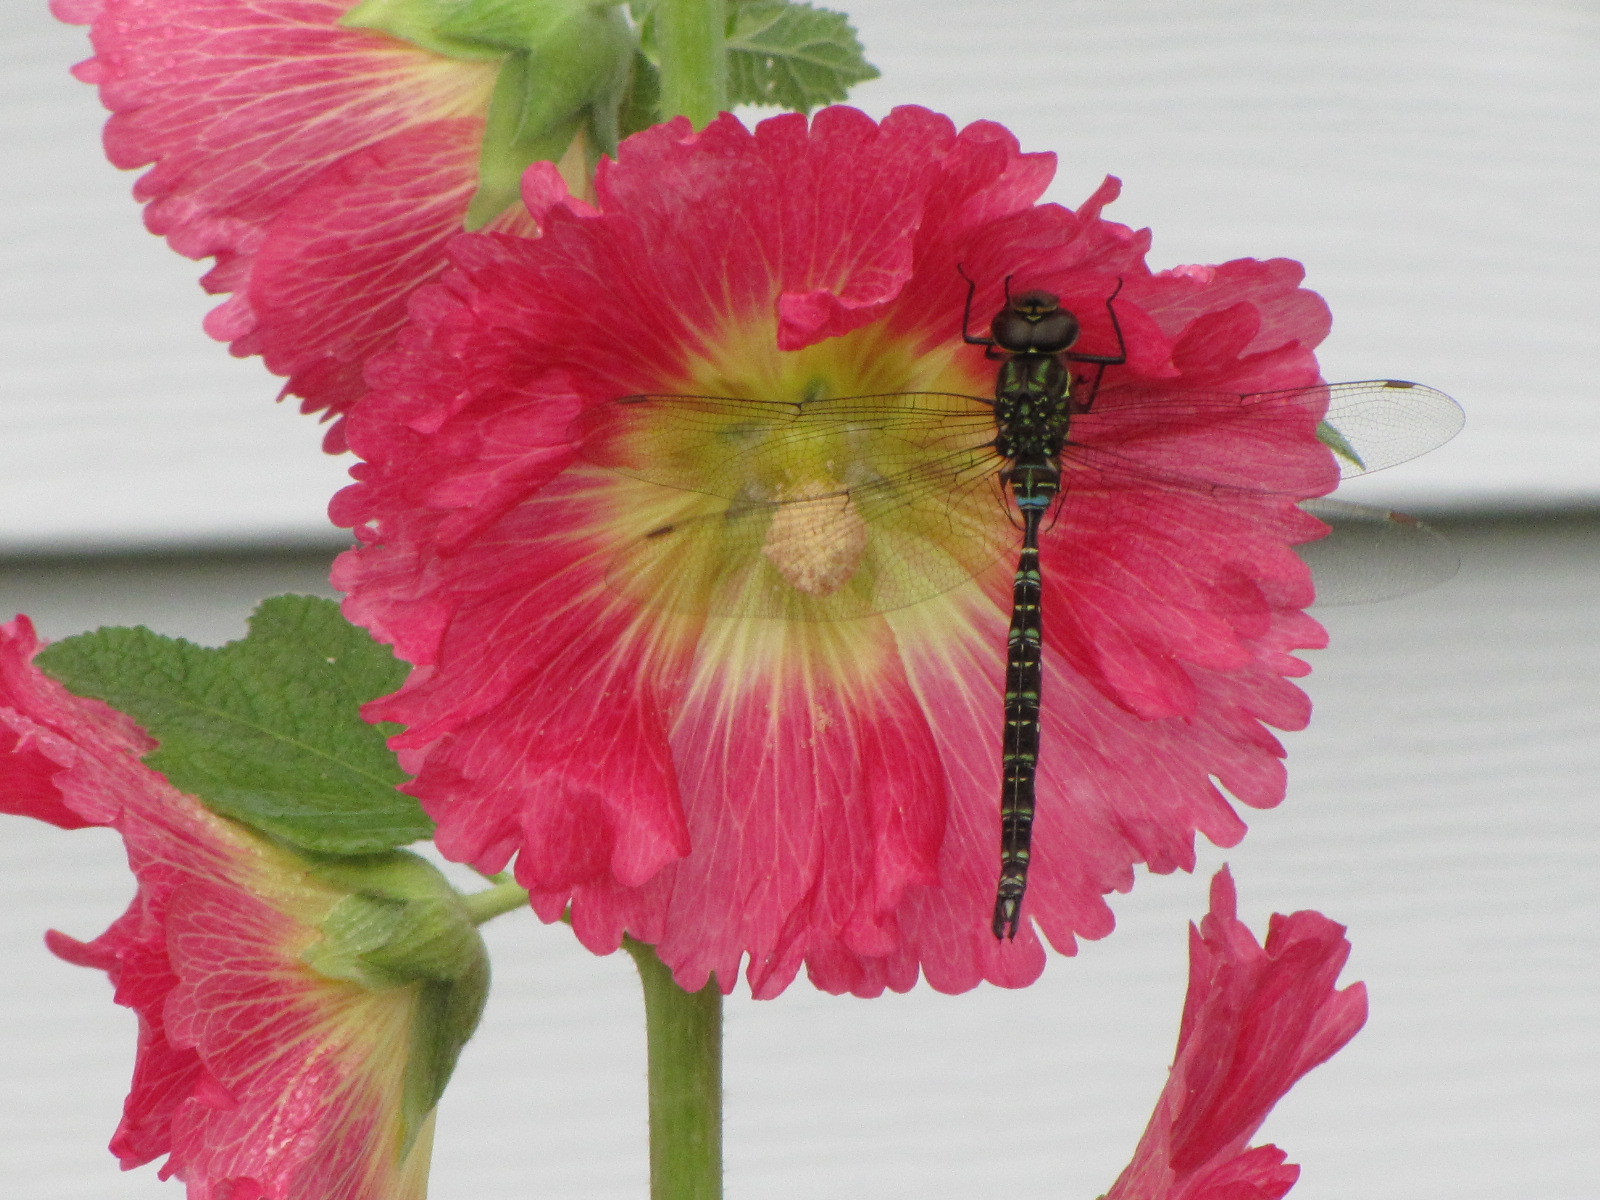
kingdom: Animalia
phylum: Arthropoda
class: Insecta
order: Odonata
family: Aeshnidae
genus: Aeshna
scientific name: Aeshna umbrosa
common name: Shadow darner
